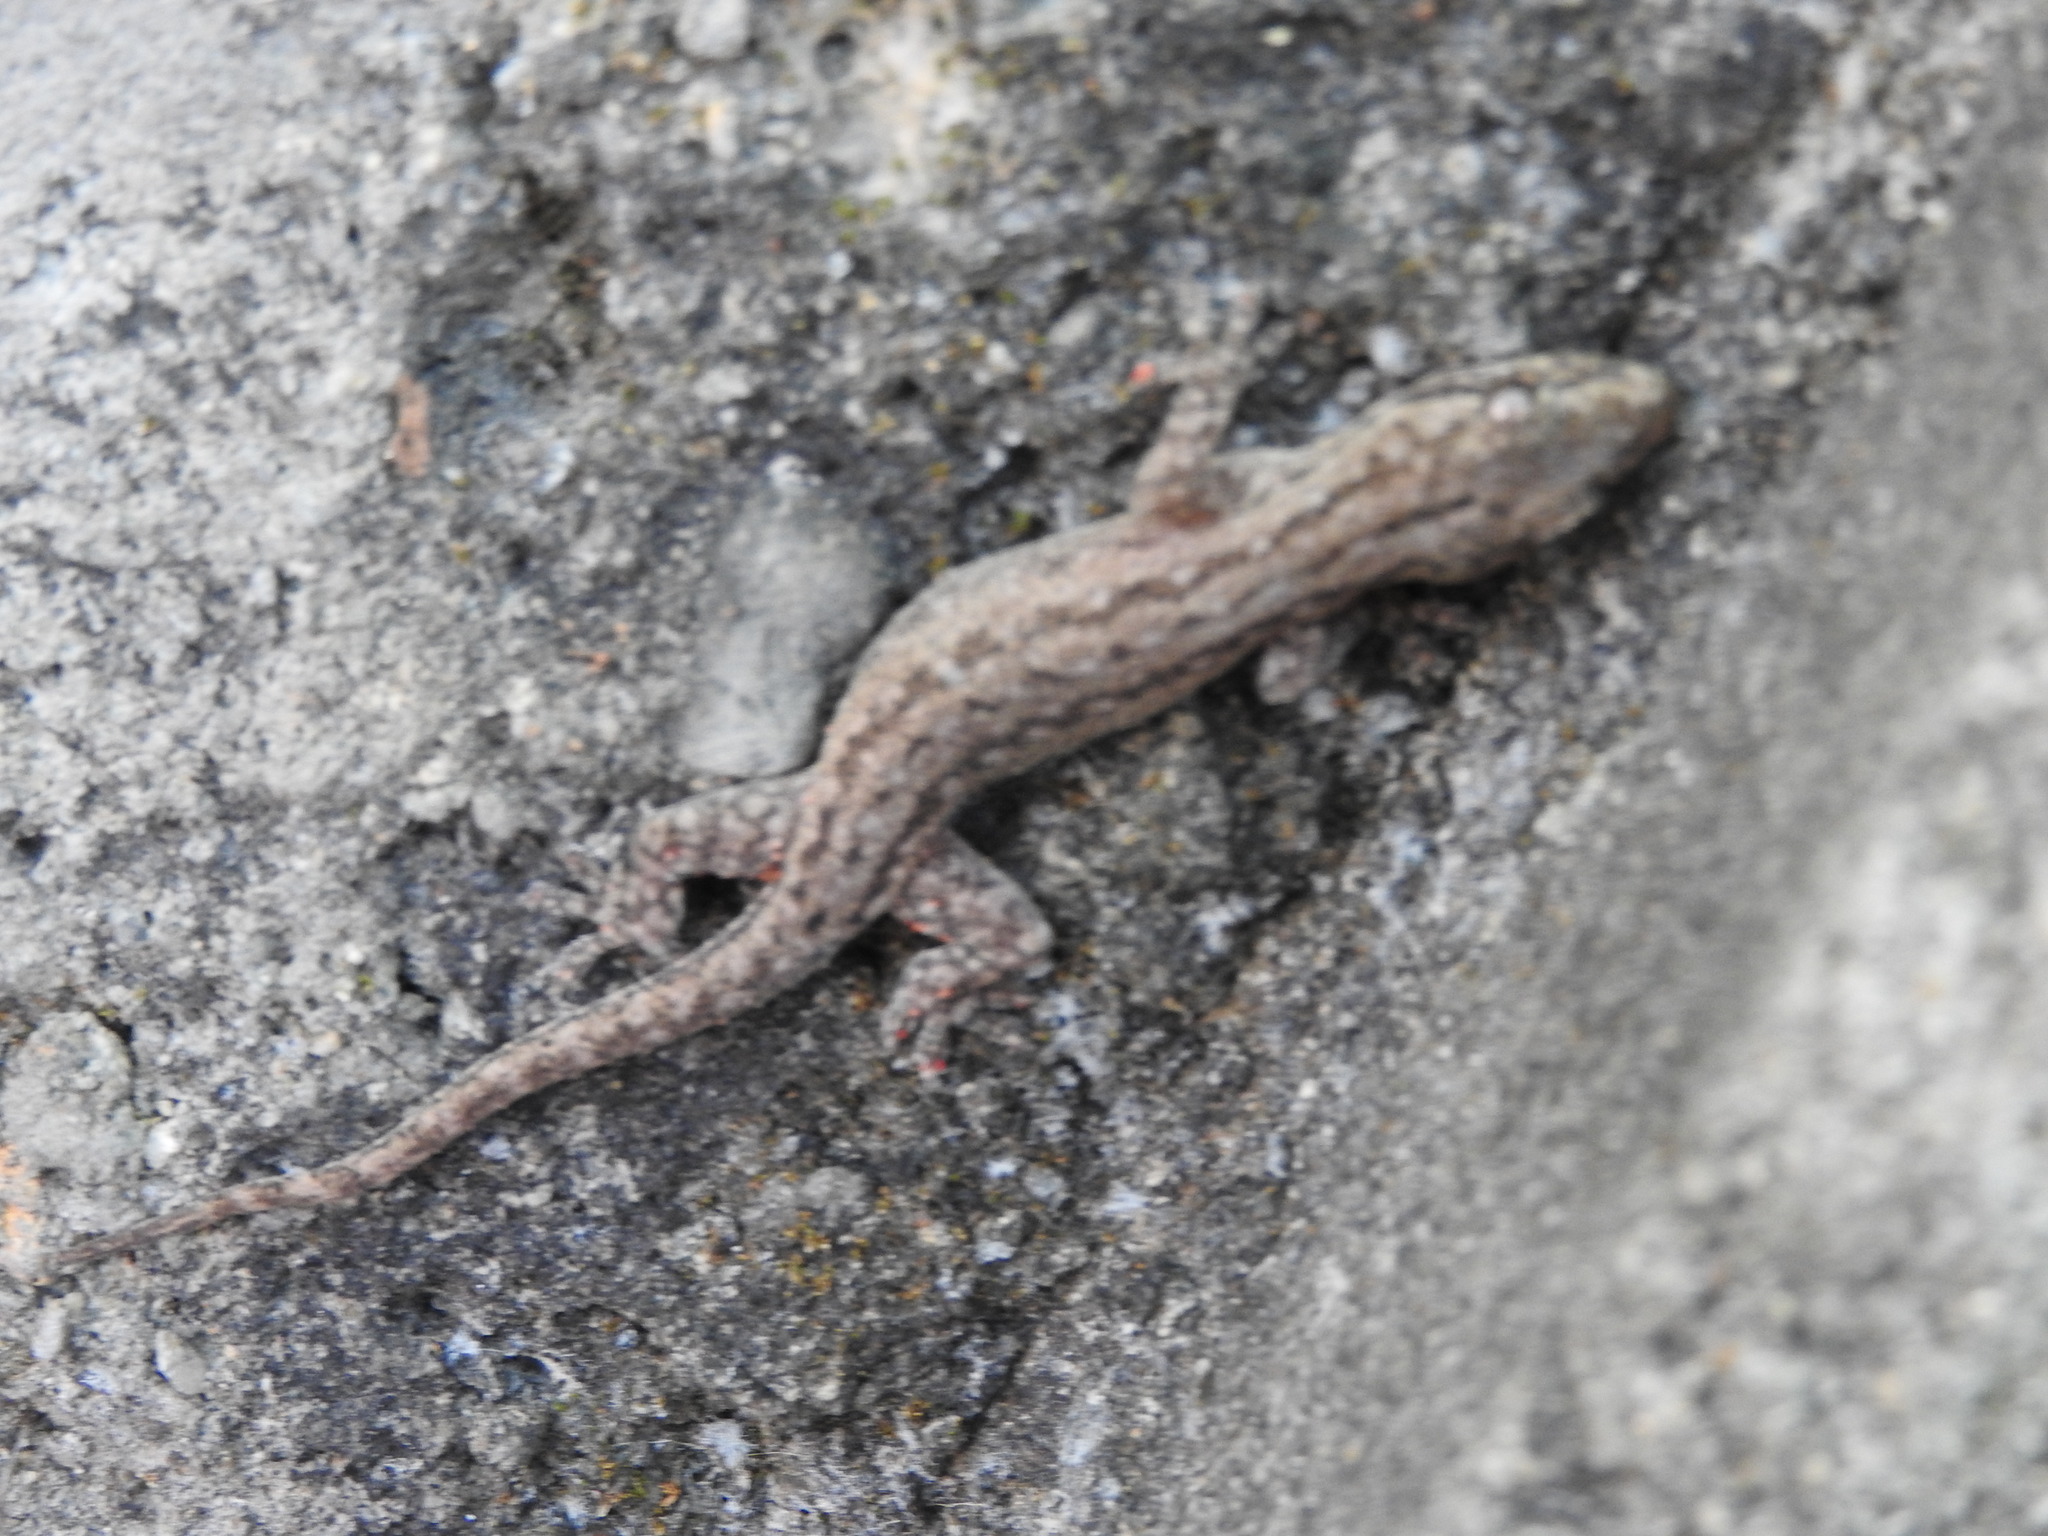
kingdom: Animalia
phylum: Chordata
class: Squamata
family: Gekkonidae
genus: Hemidactylus
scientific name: Hemidactylus frenatus
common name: Common house gecko
